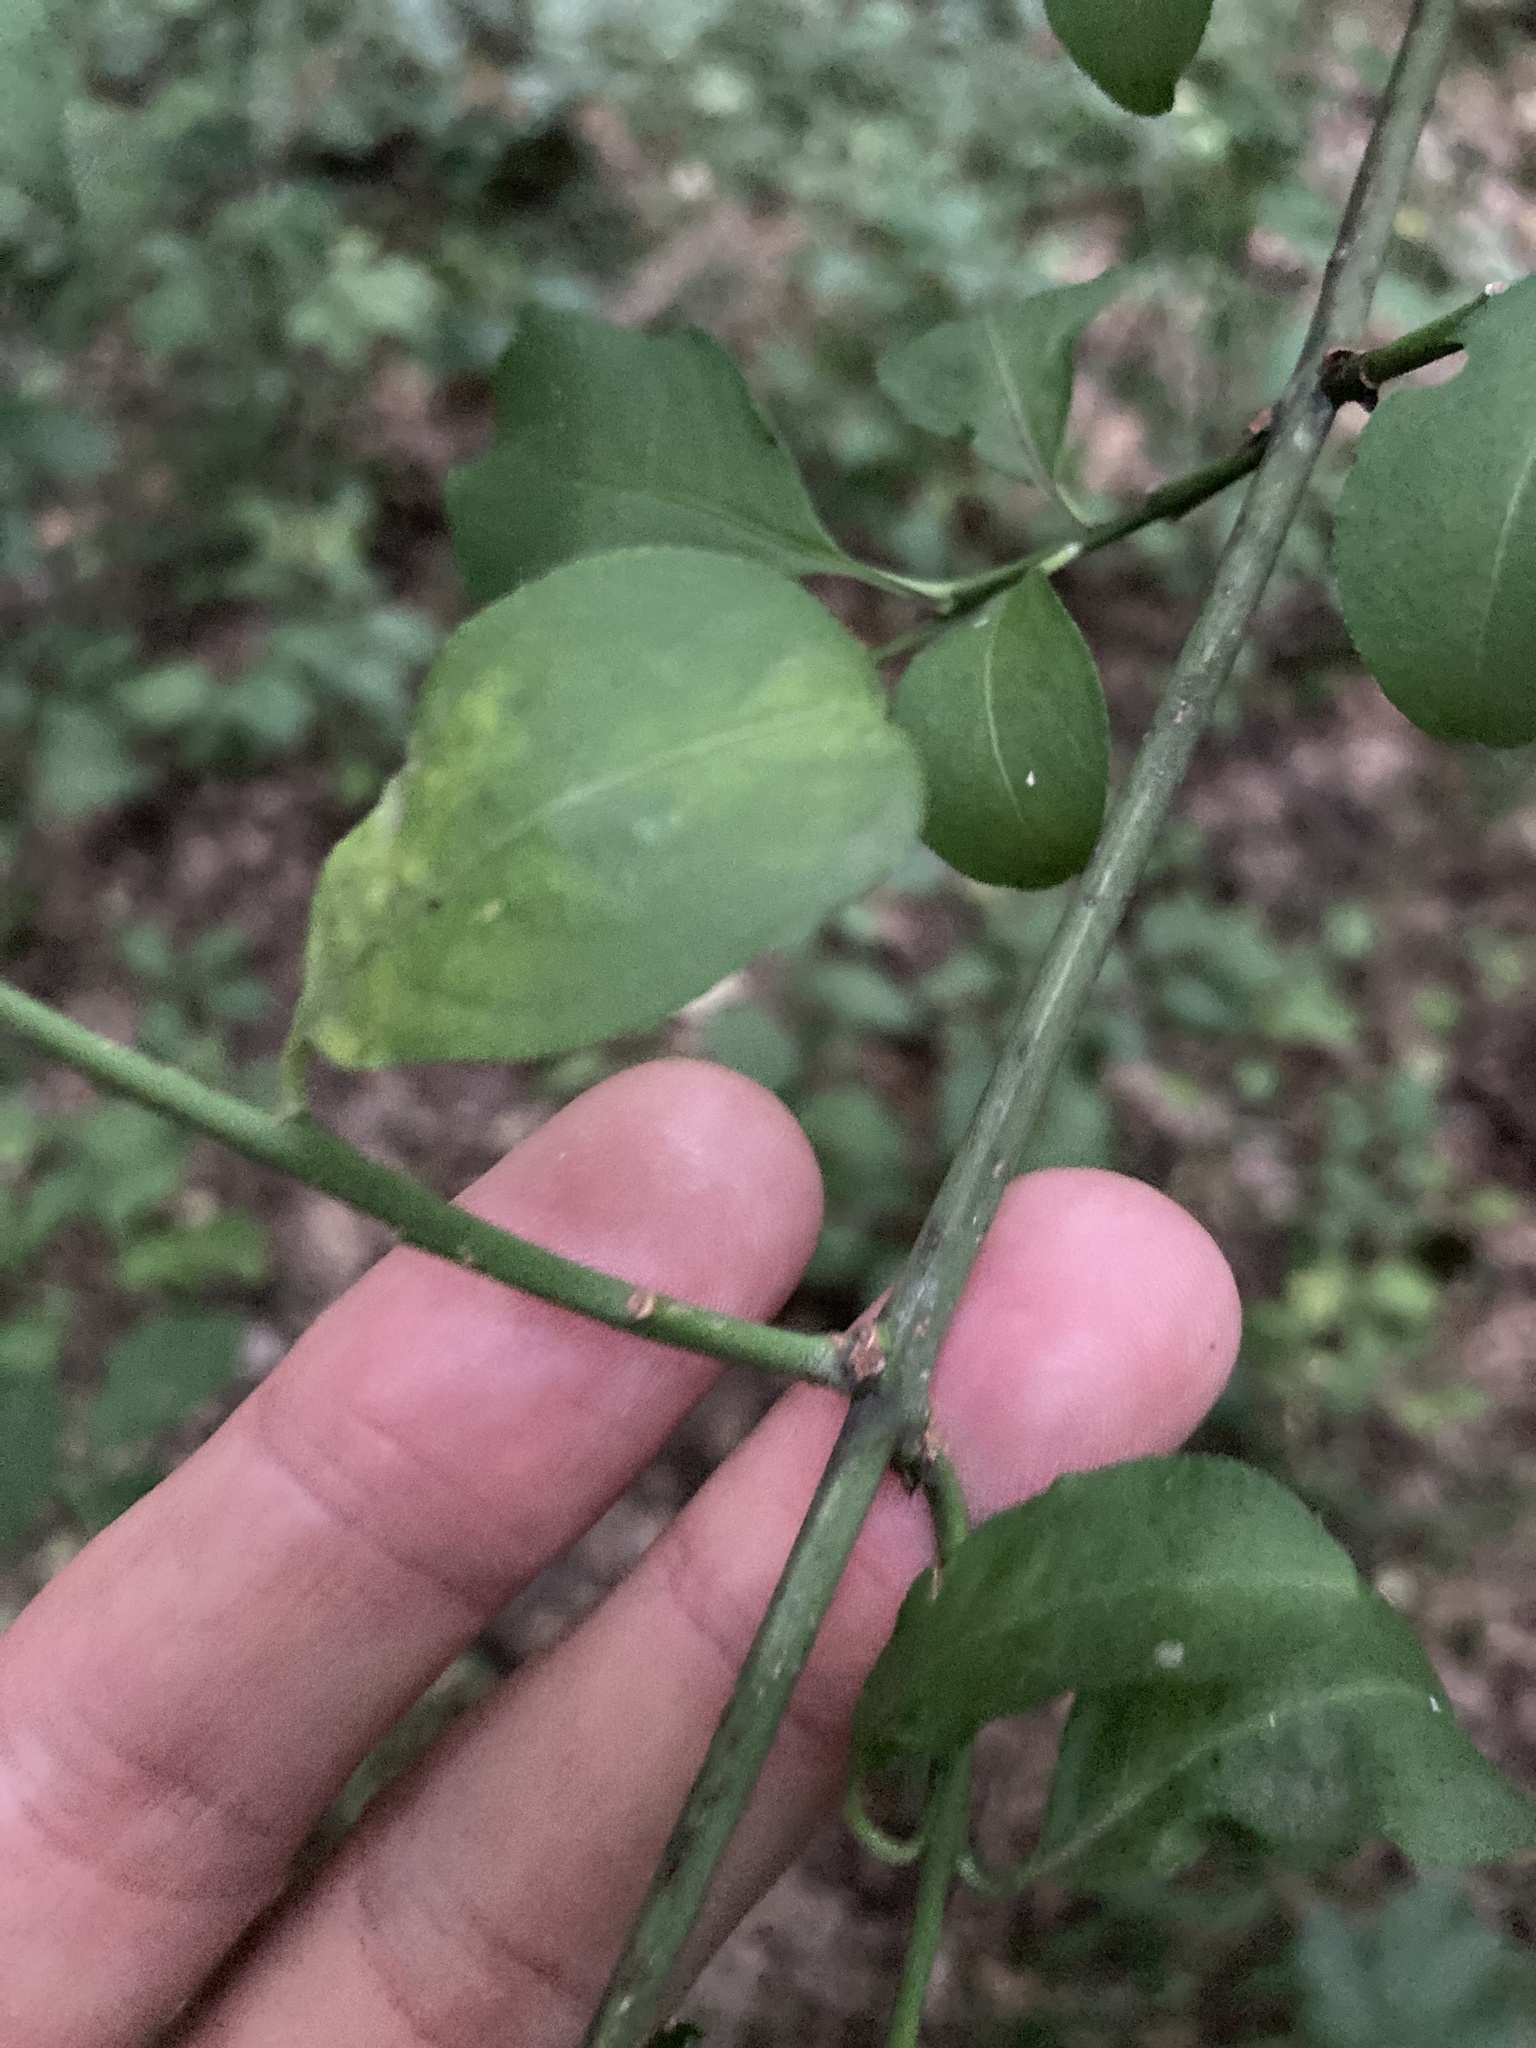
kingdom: Plantae
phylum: Tracheophyta
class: Magnoliopsida
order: Celastrales
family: Celastraceae
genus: Euonymus
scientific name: Euonymus europaeus
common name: Spindle
